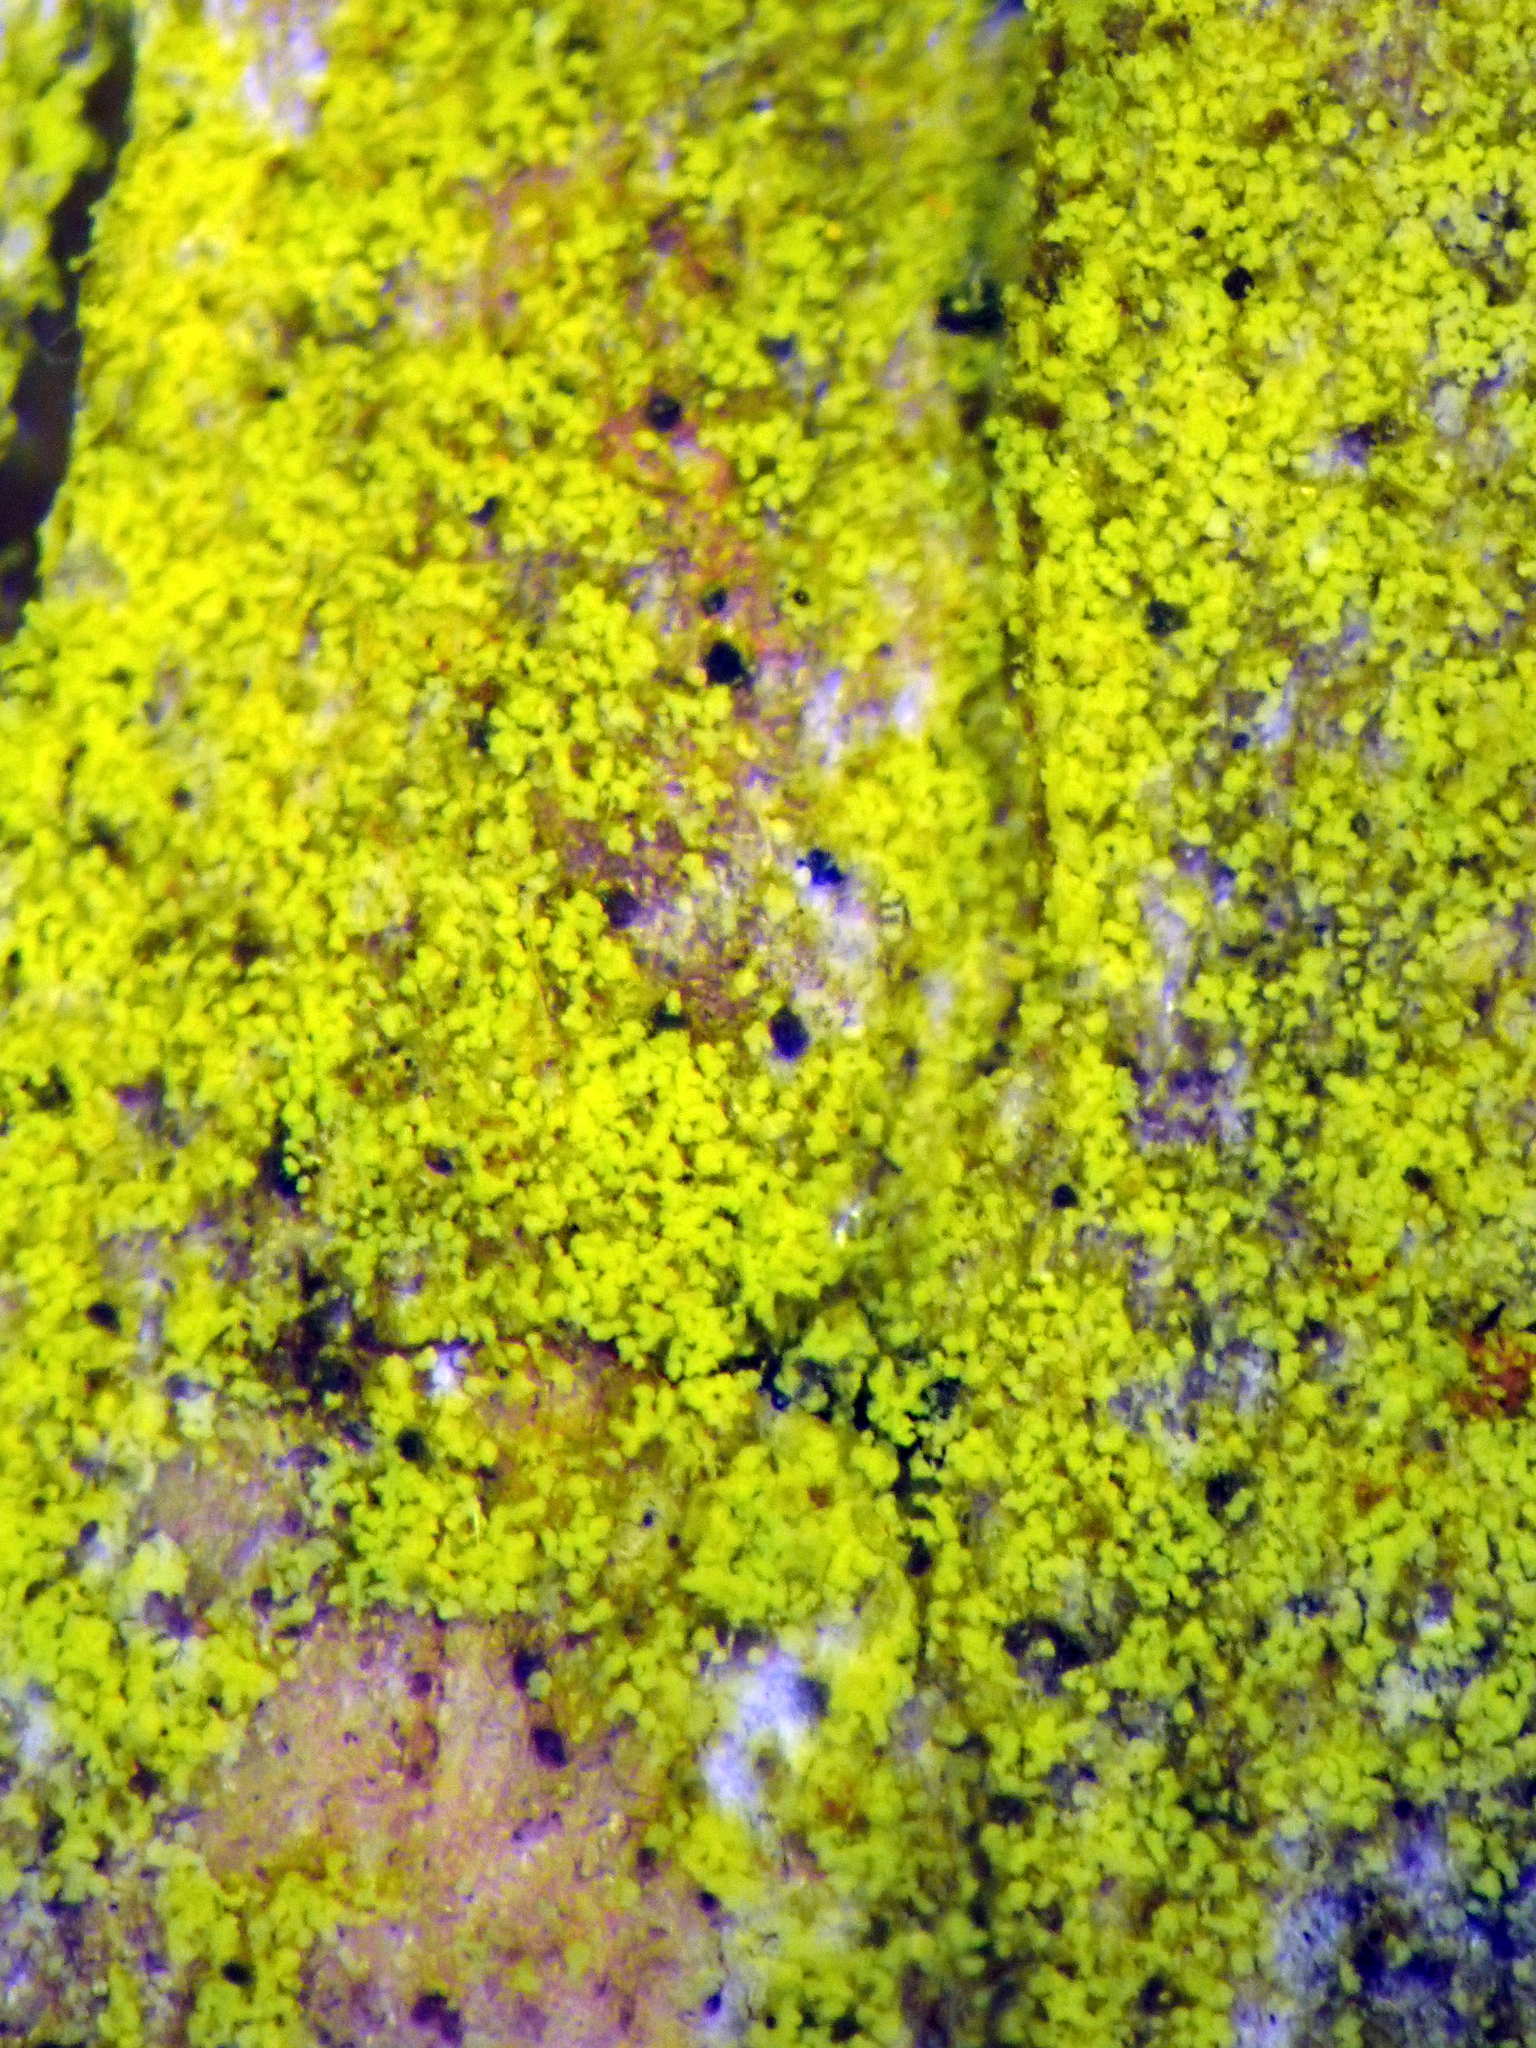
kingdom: Fungi
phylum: Ascomycota
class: Arthoniomycetes
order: Arthoniales
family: Chrysotrichaceae
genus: Chrysothrix
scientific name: Chrysothrix xanthina
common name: Common gold-dust
